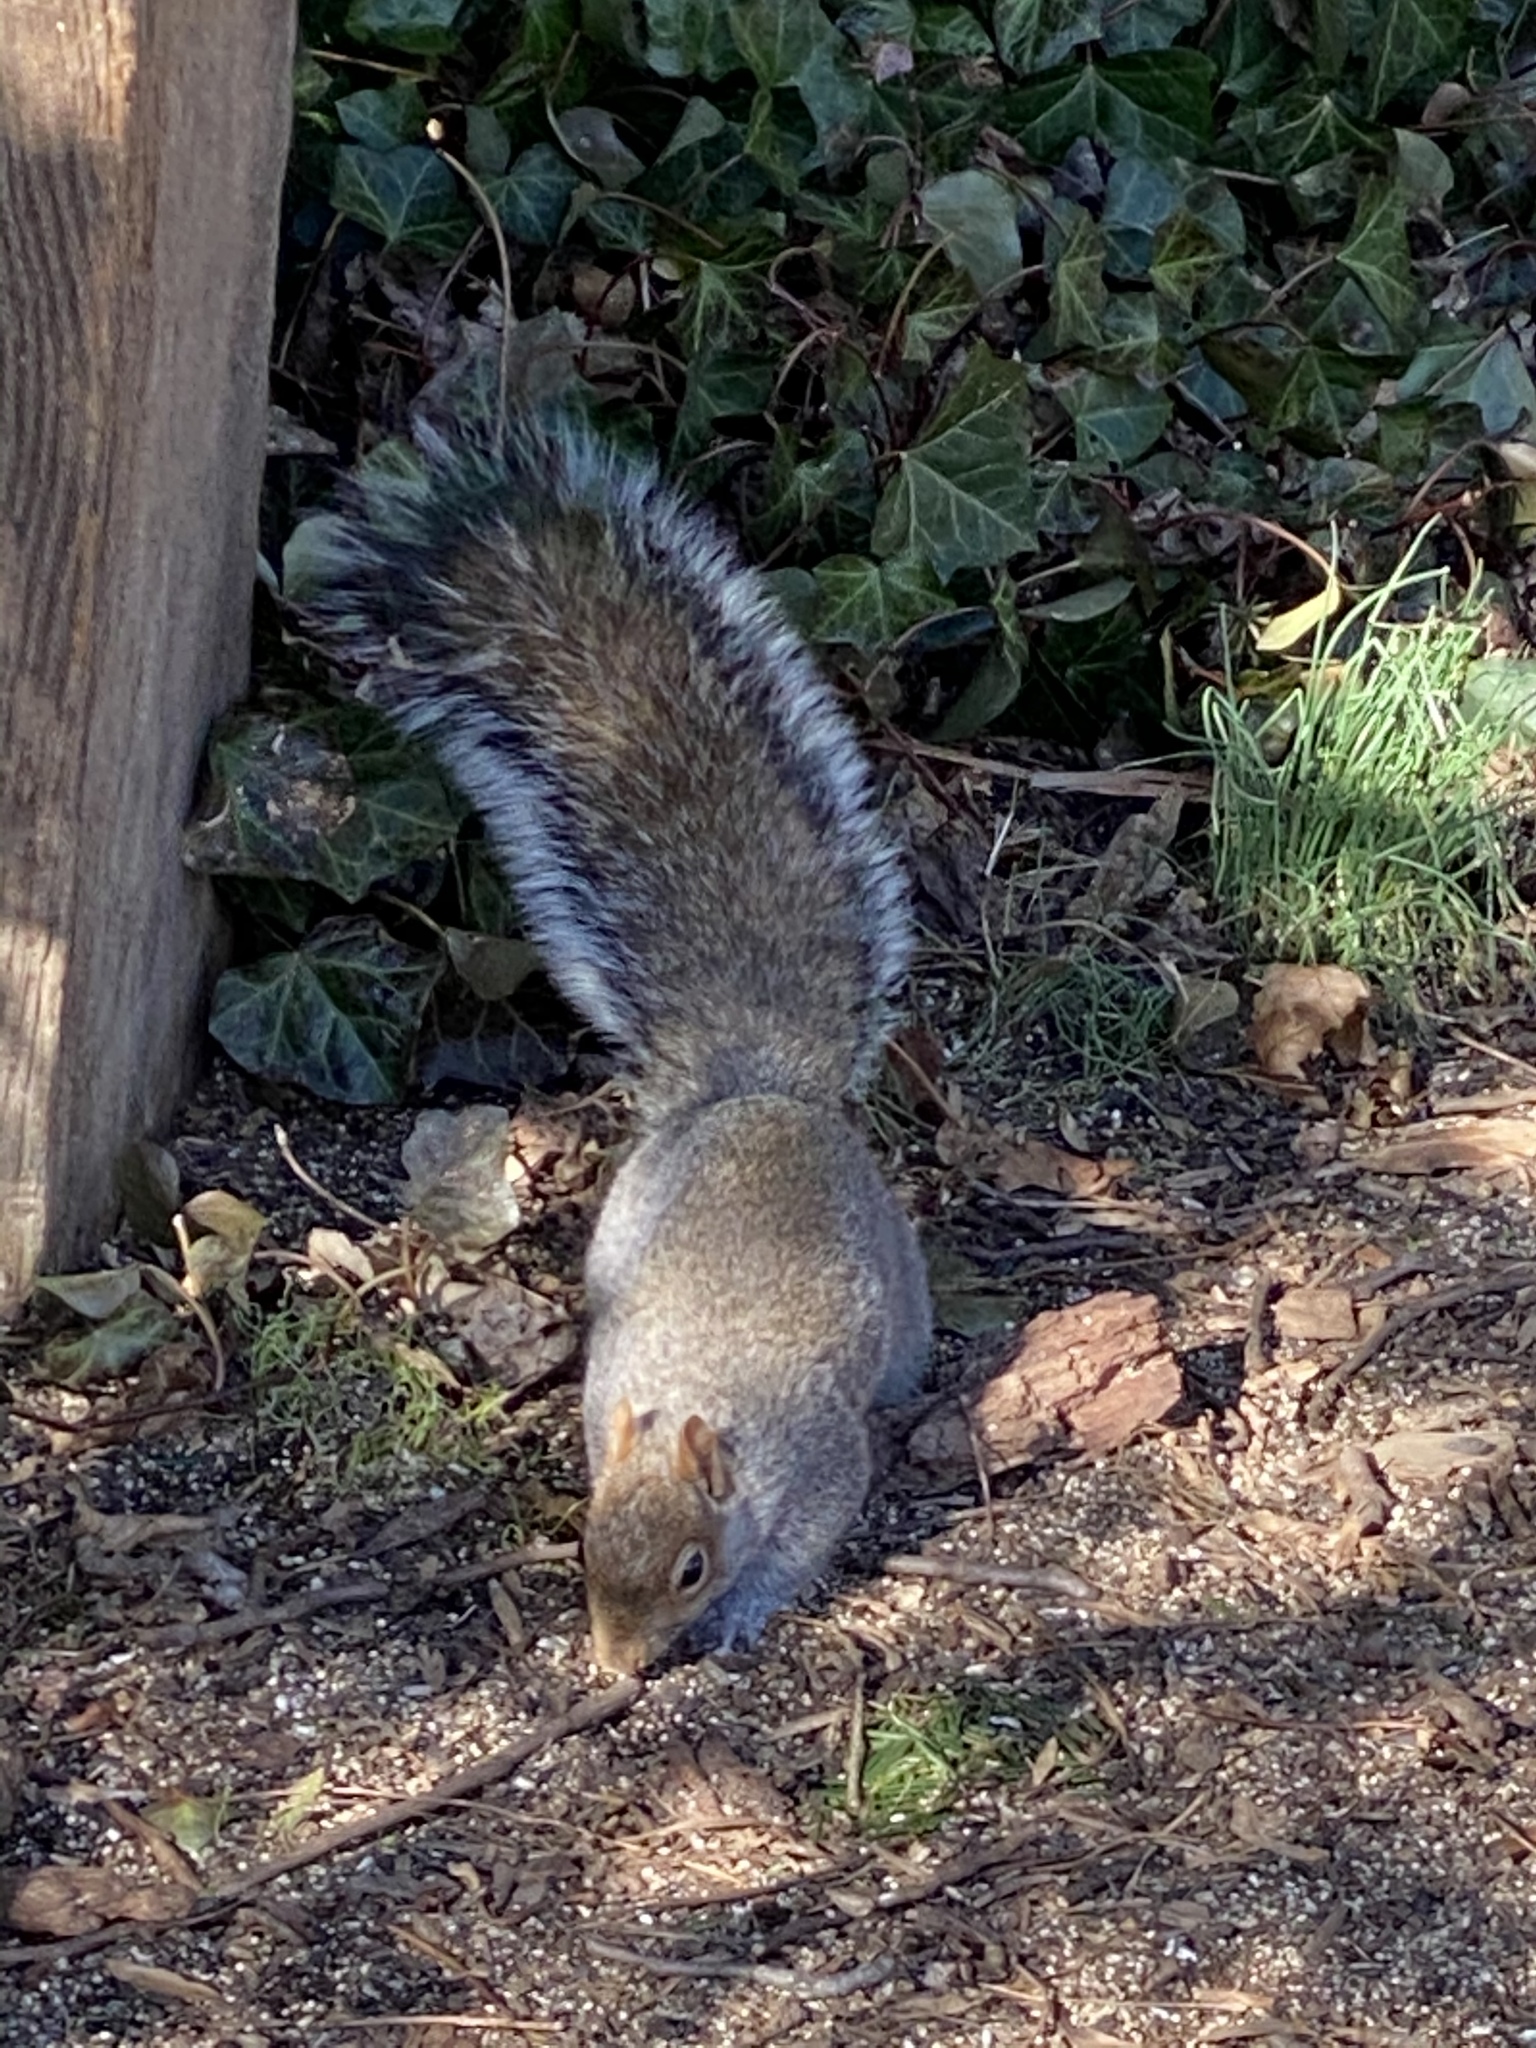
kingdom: Animalia
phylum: Chordata
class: Mammalia
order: Rodentia
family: Sciuridae
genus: Sciurus
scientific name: Sciurus carolinensis
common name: Eastern gray squirrel
